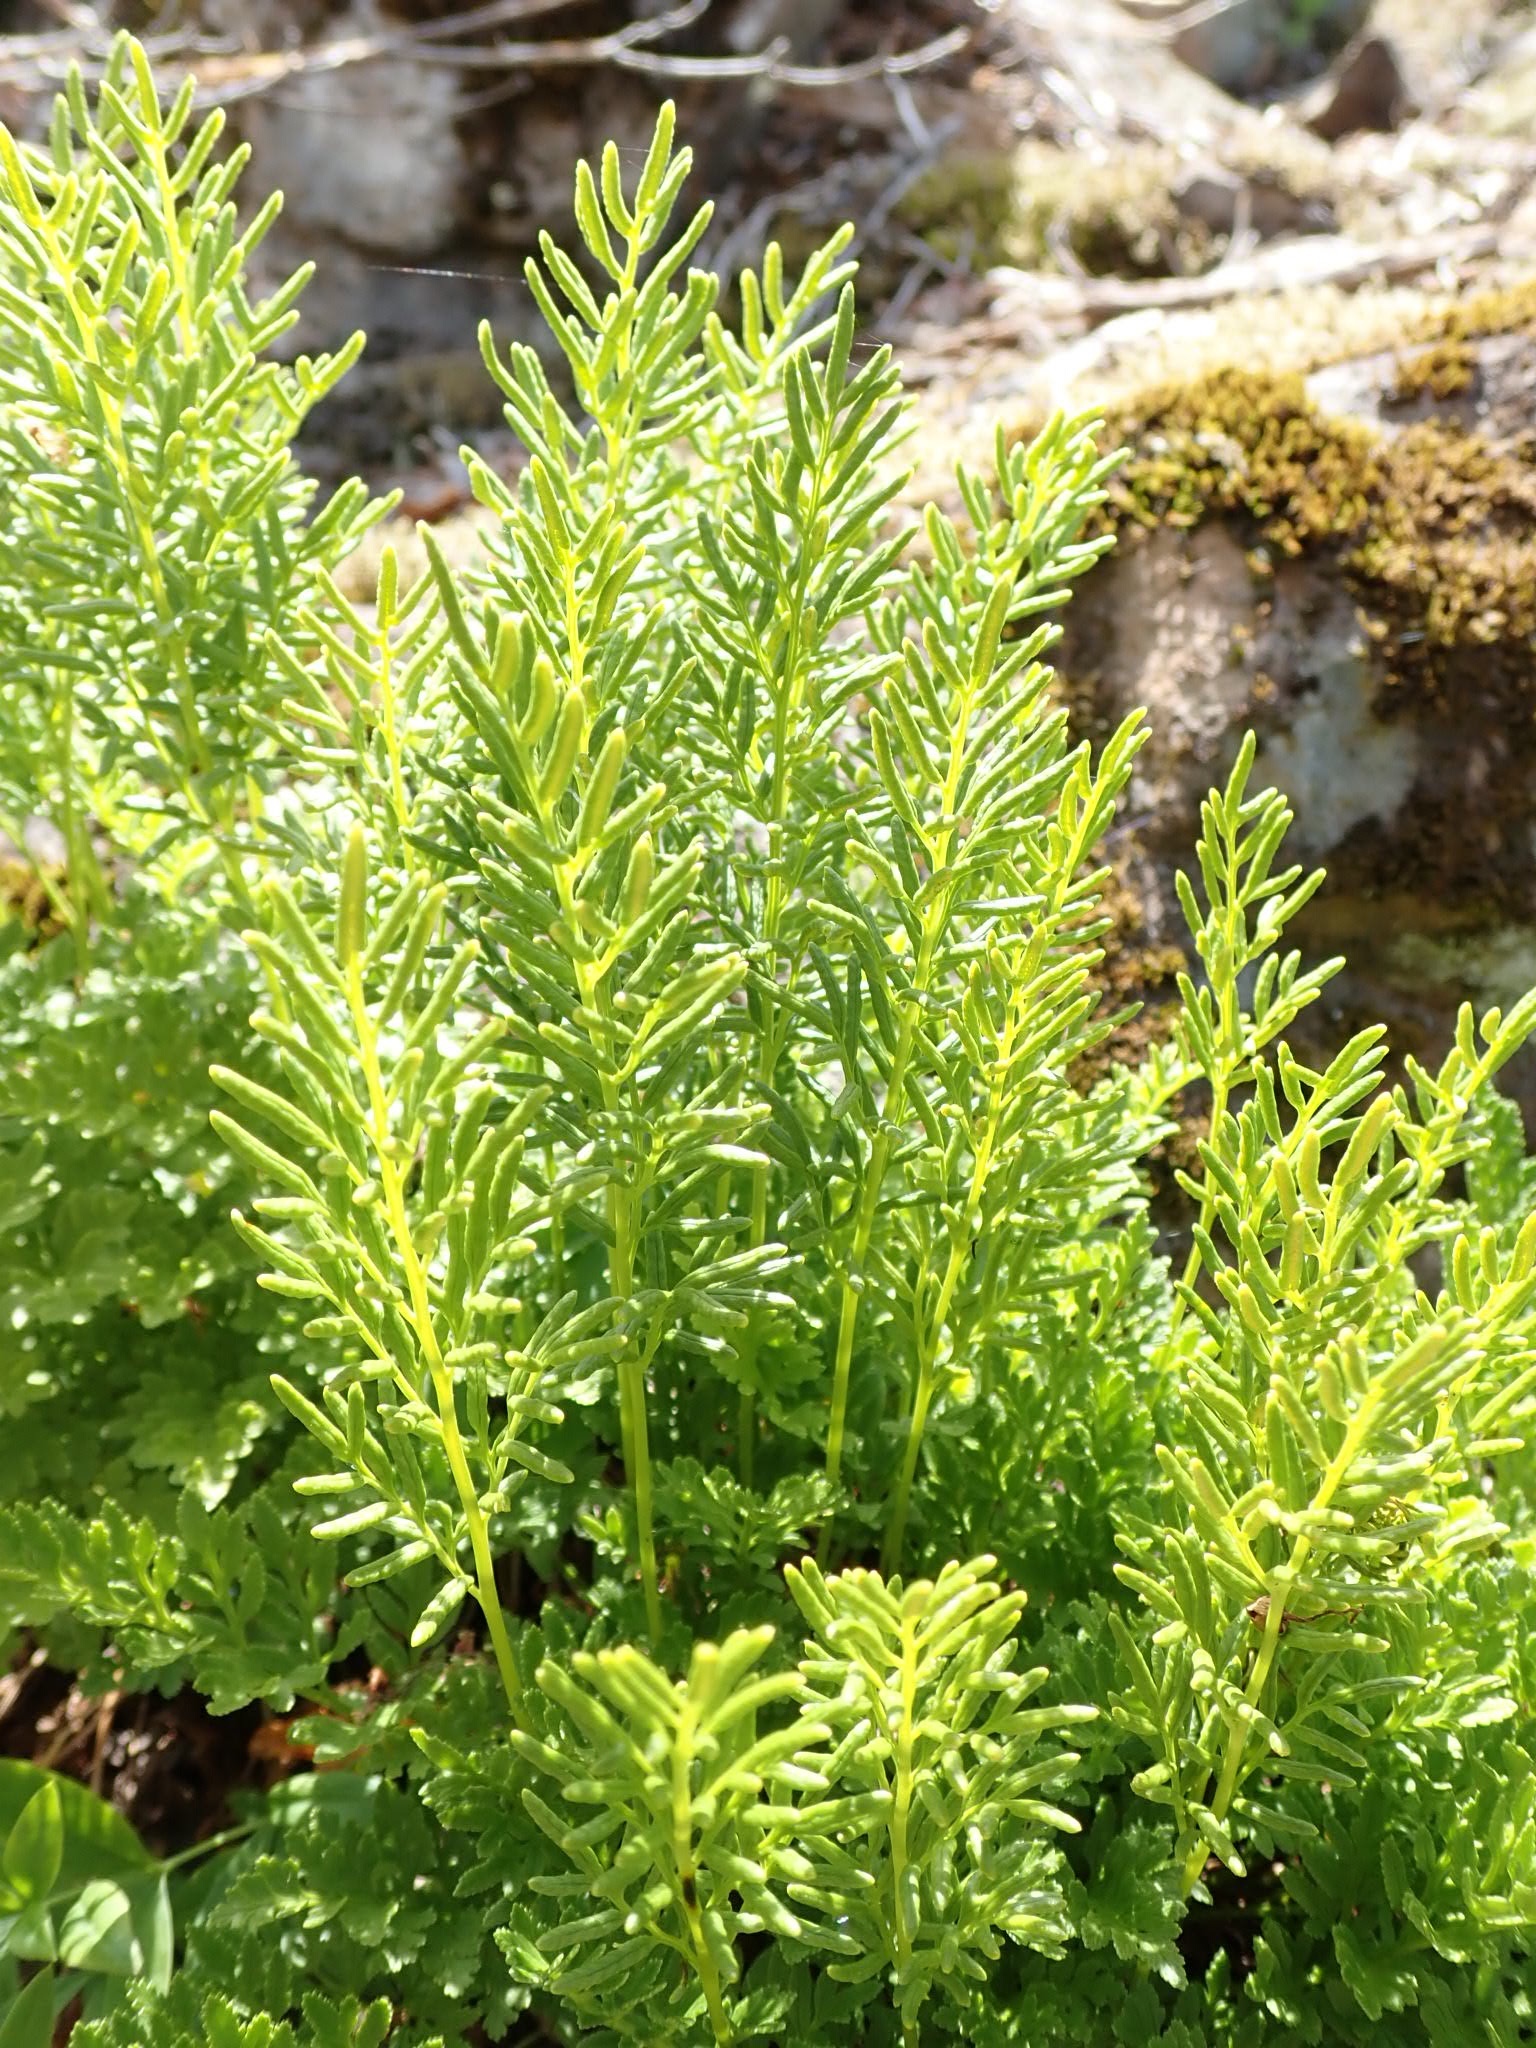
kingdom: Plantae
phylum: Tracheophyta
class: Polypodiopsida
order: Polypodiales
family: Pteridaceae
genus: Cryptogramma
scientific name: Cryptogramma acrostichoides
